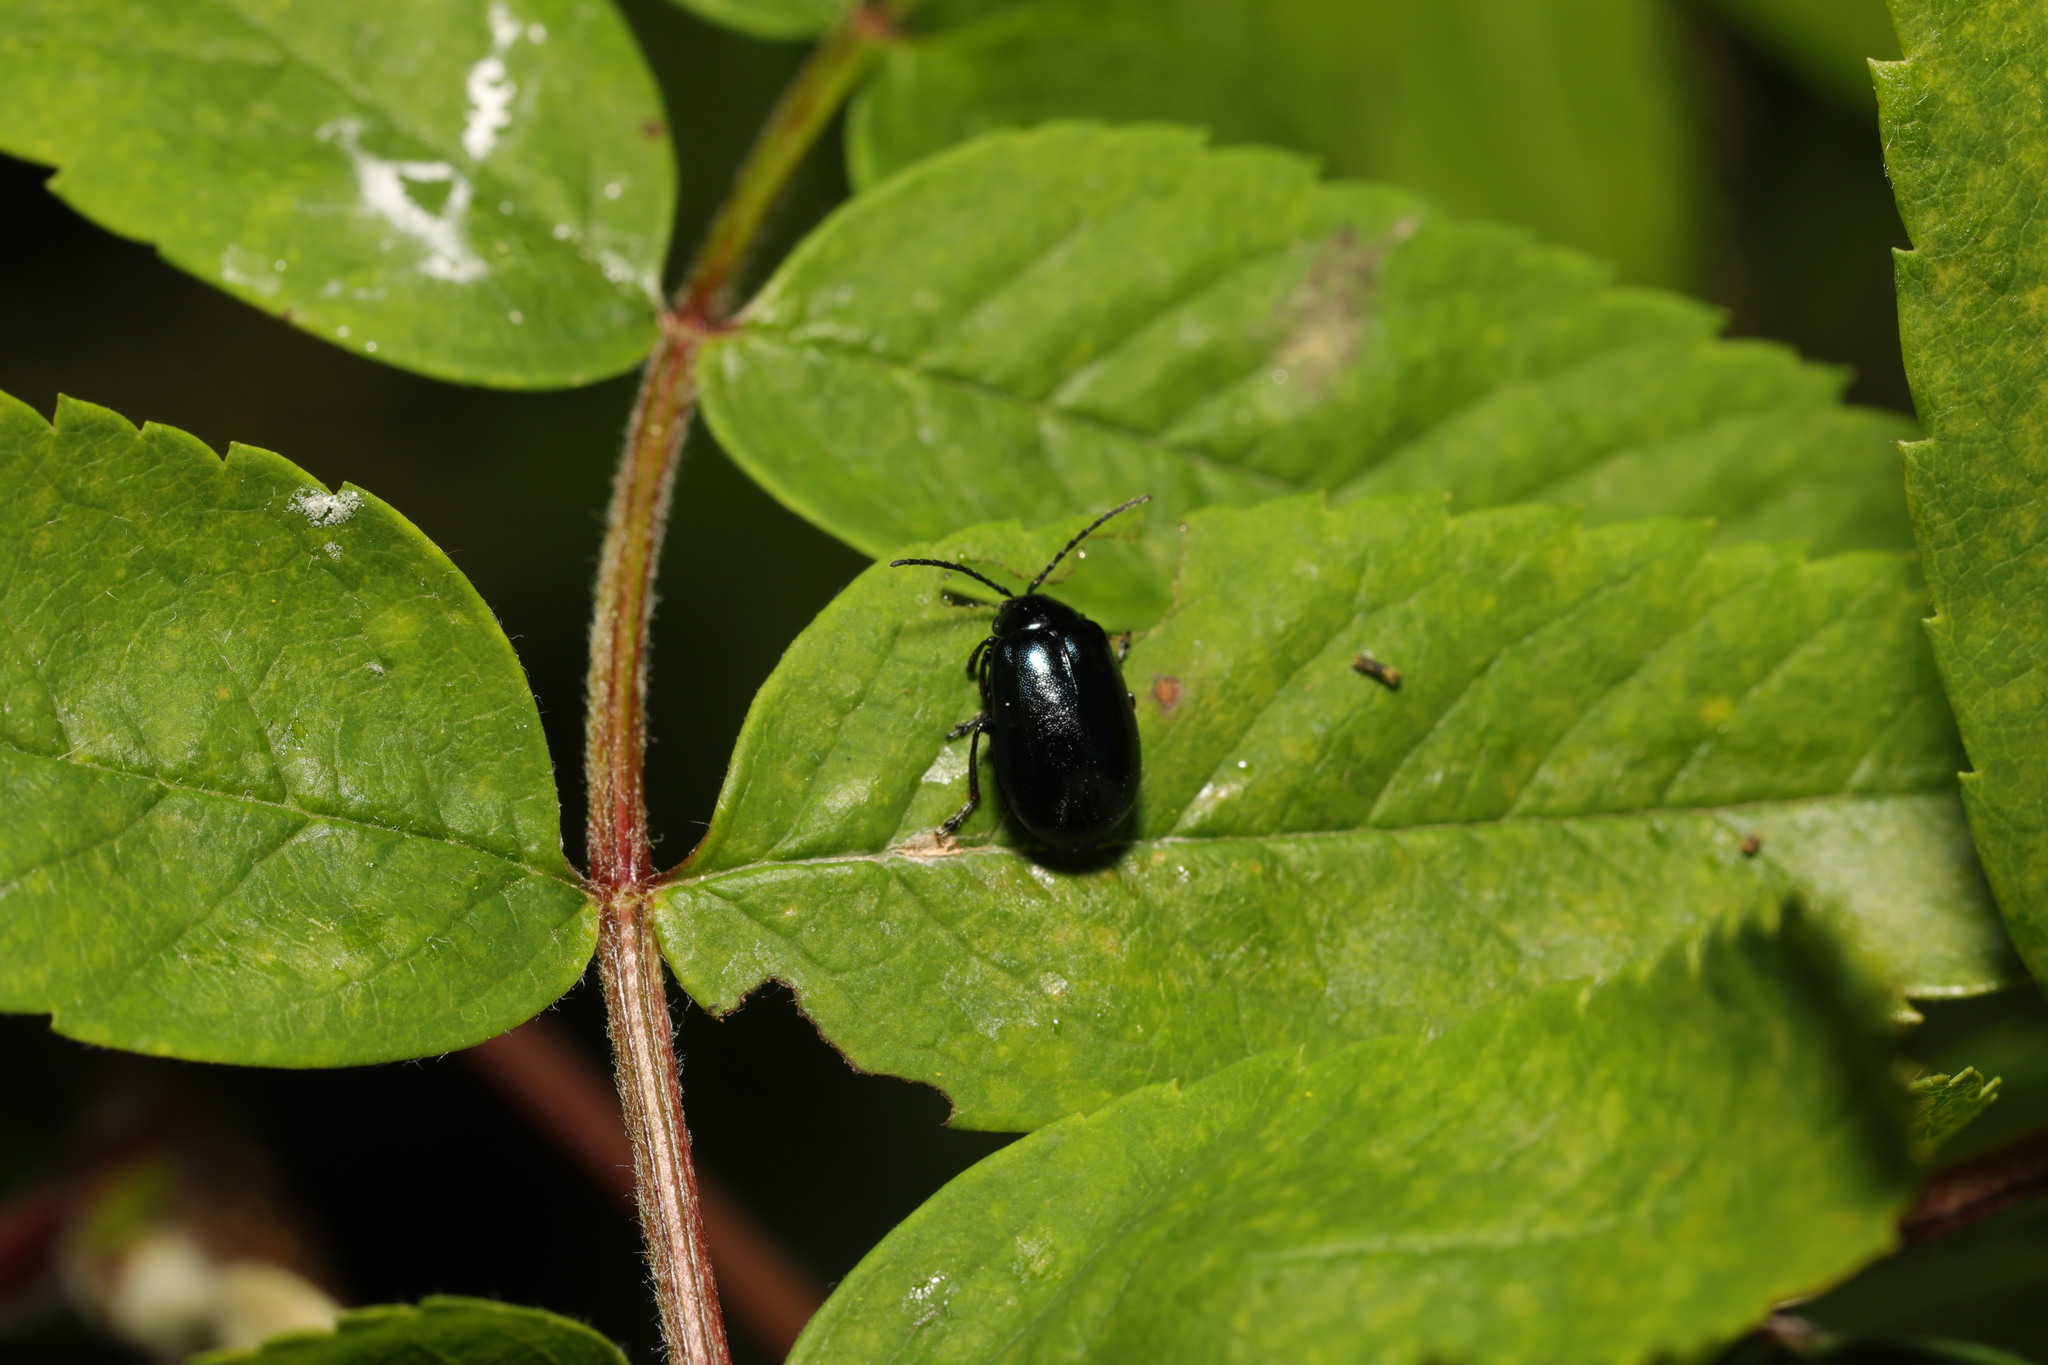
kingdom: Animalia
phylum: Arthropoda
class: Insecta
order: Coleoptera
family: Chrysomelidae
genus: Agelastica
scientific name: Agelastica alni
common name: Alder leaf beetle
